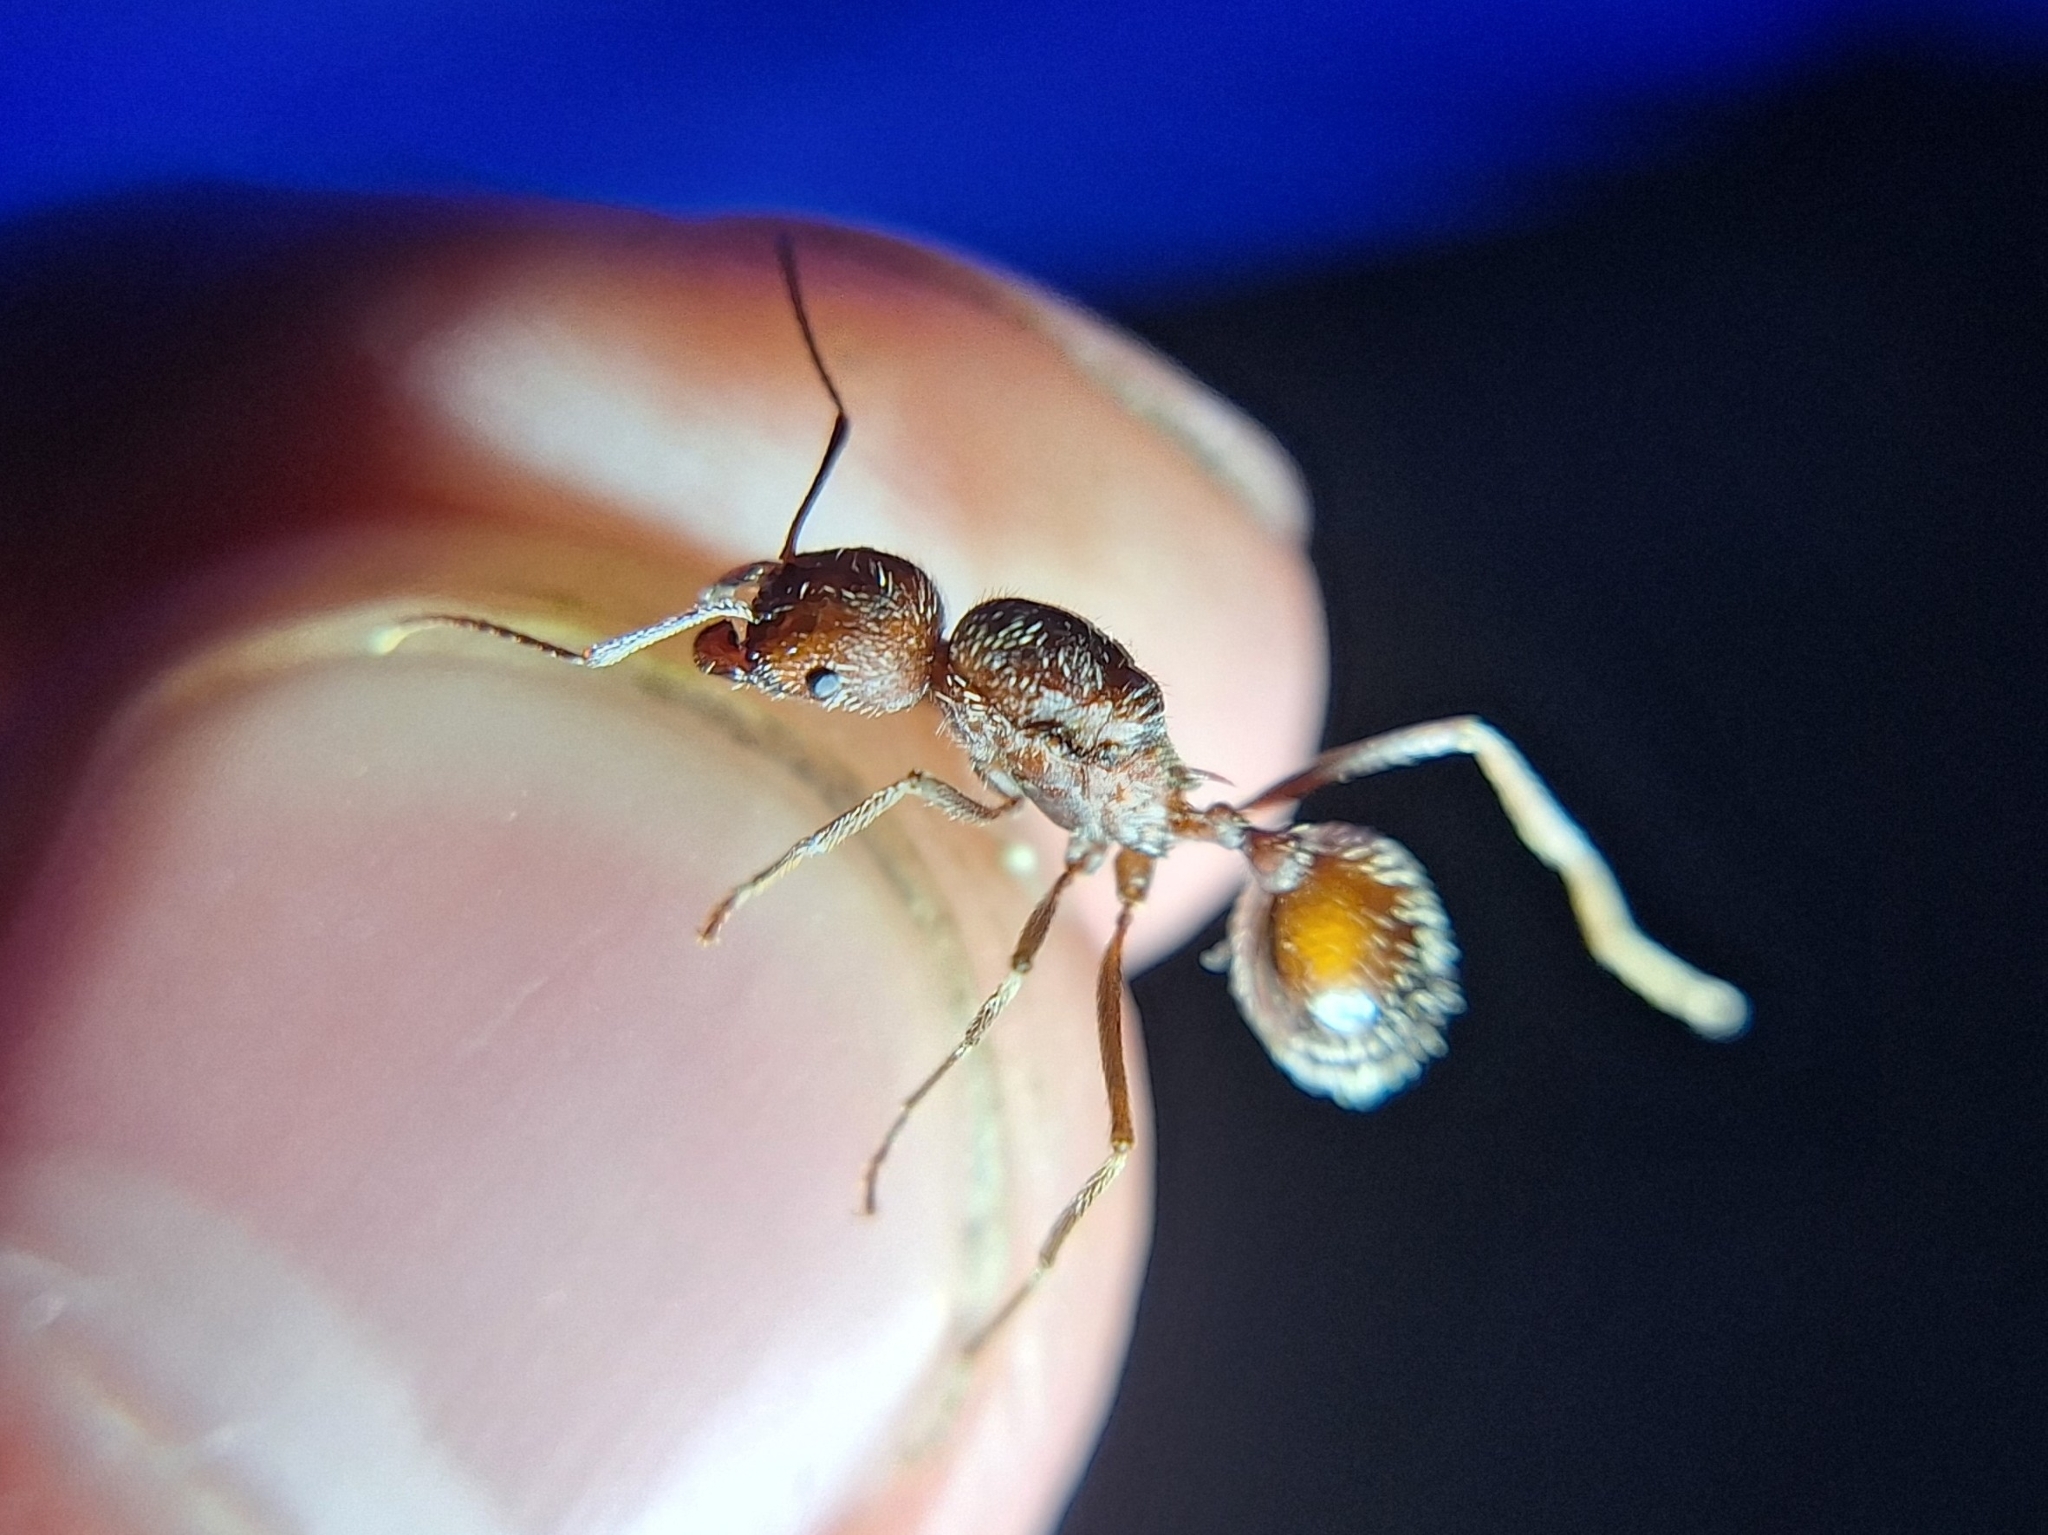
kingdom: Animalia
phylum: Arthropoda
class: Insecta
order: Hymenoptera
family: Formicidae
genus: Novomessor
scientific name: Novomessor albisetosa
